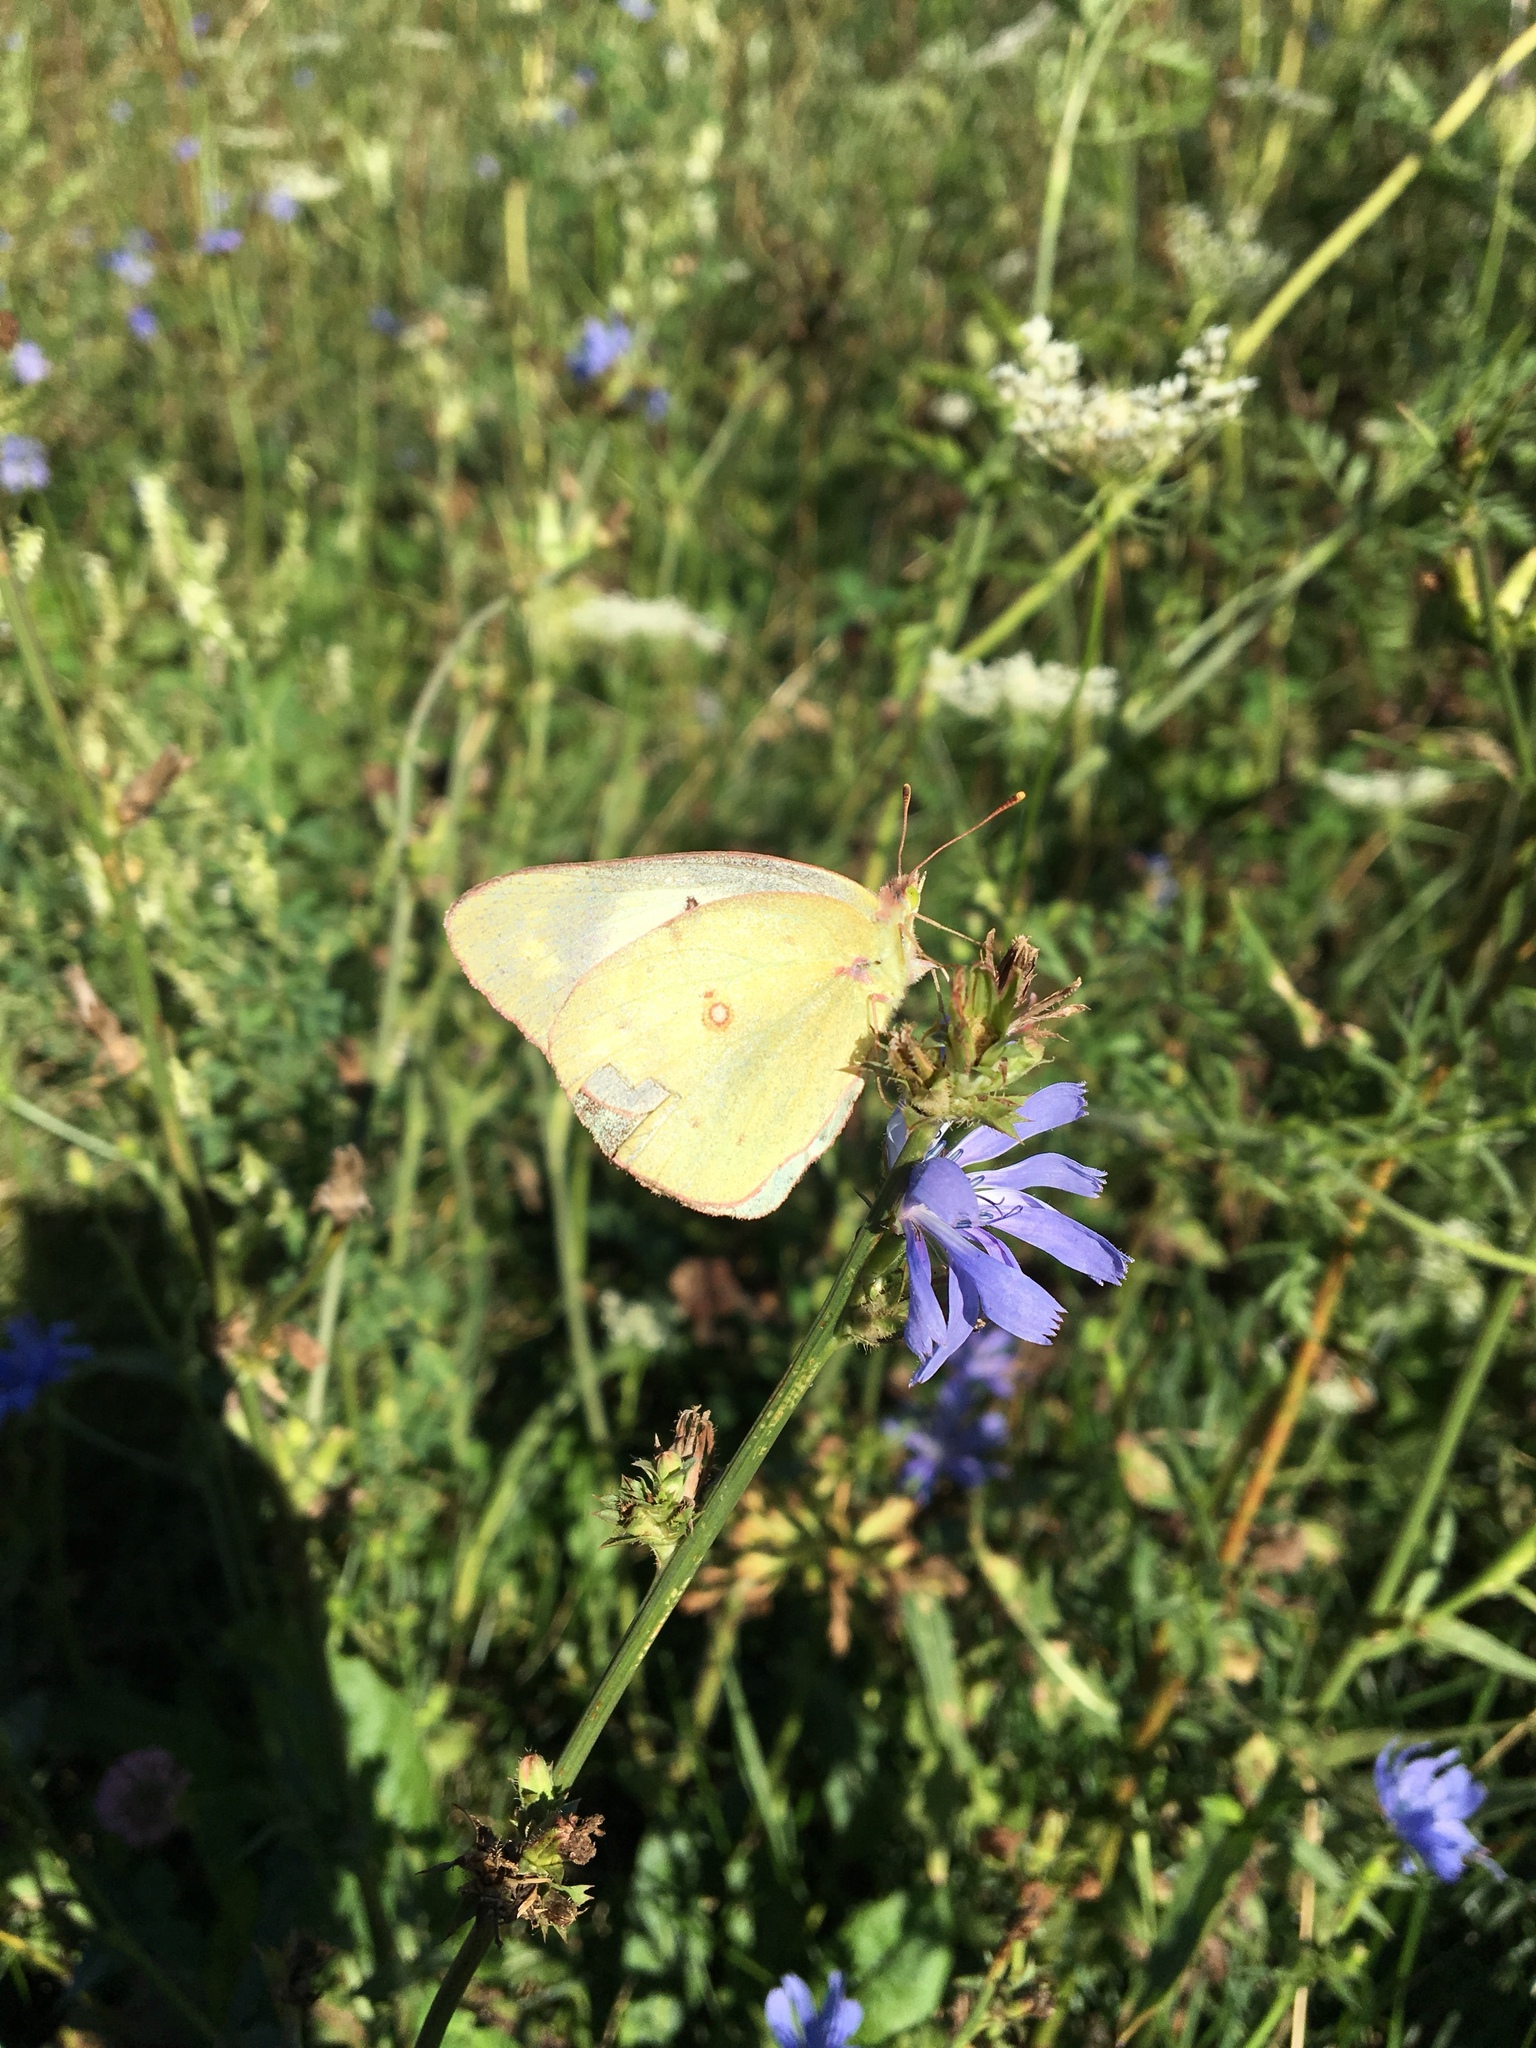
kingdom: Animalia
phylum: Arthropoda
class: Insecta
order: Lepidoptera
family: Pieridae
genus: Colias
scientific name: Colias philodice
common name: Clouded sulphur
